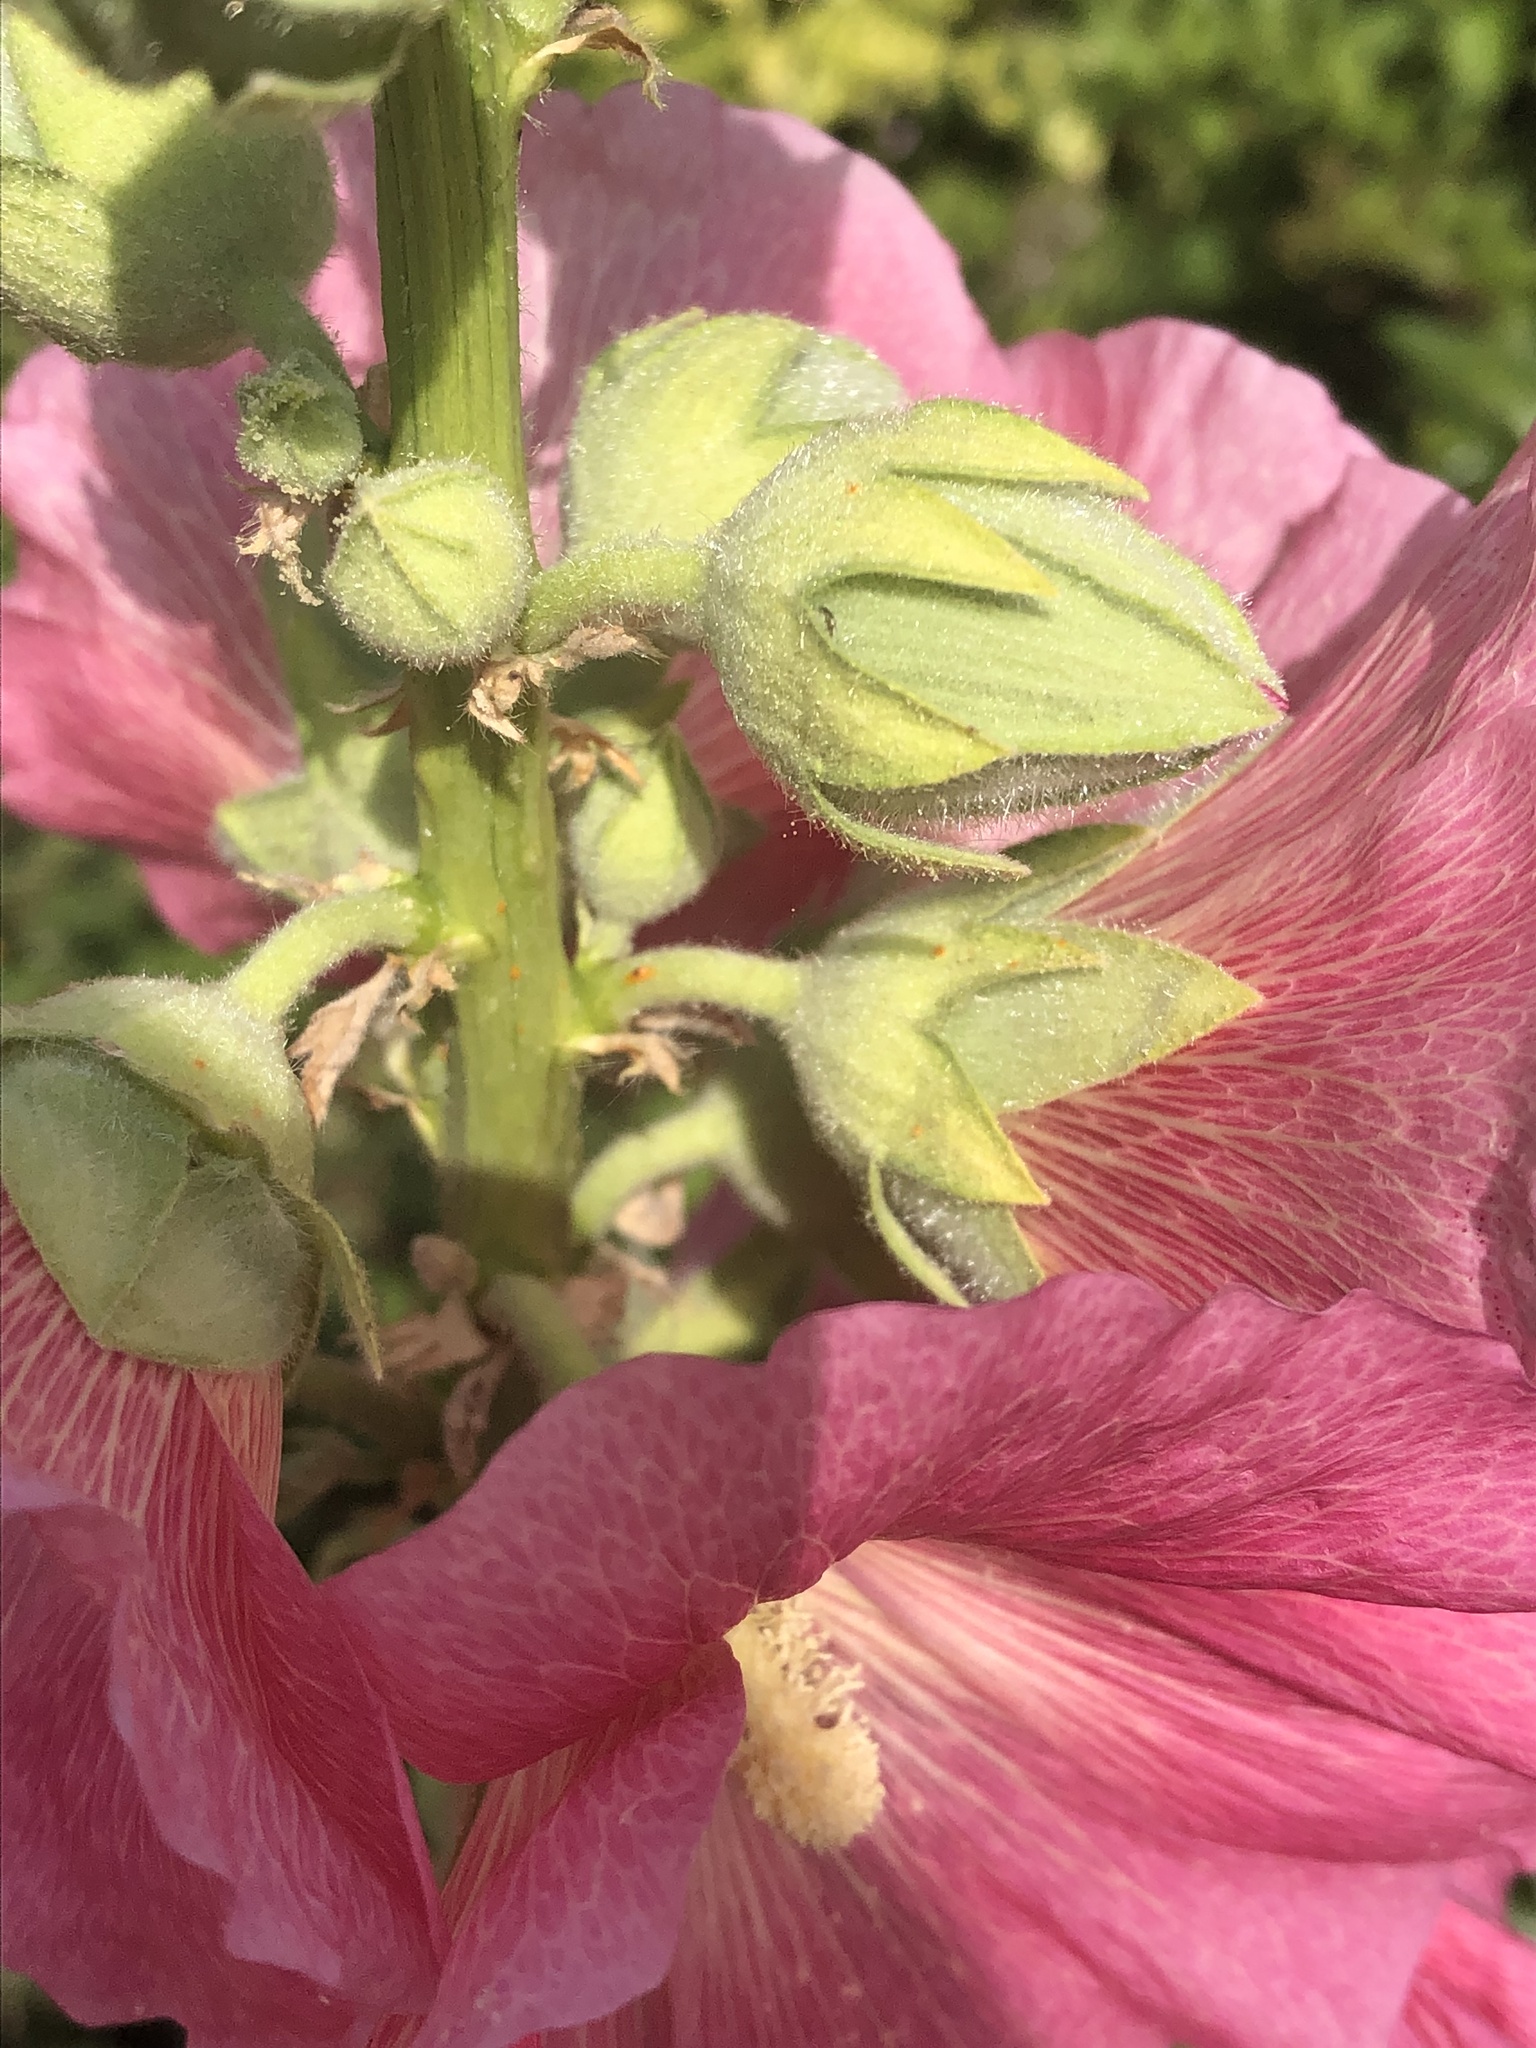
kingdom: Plantae
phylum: Tracheophyta
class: Magnoliopsida
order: Malvales
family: Malvaceae
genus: Alcea
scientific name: Alcea rosea
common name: Hollyhock
